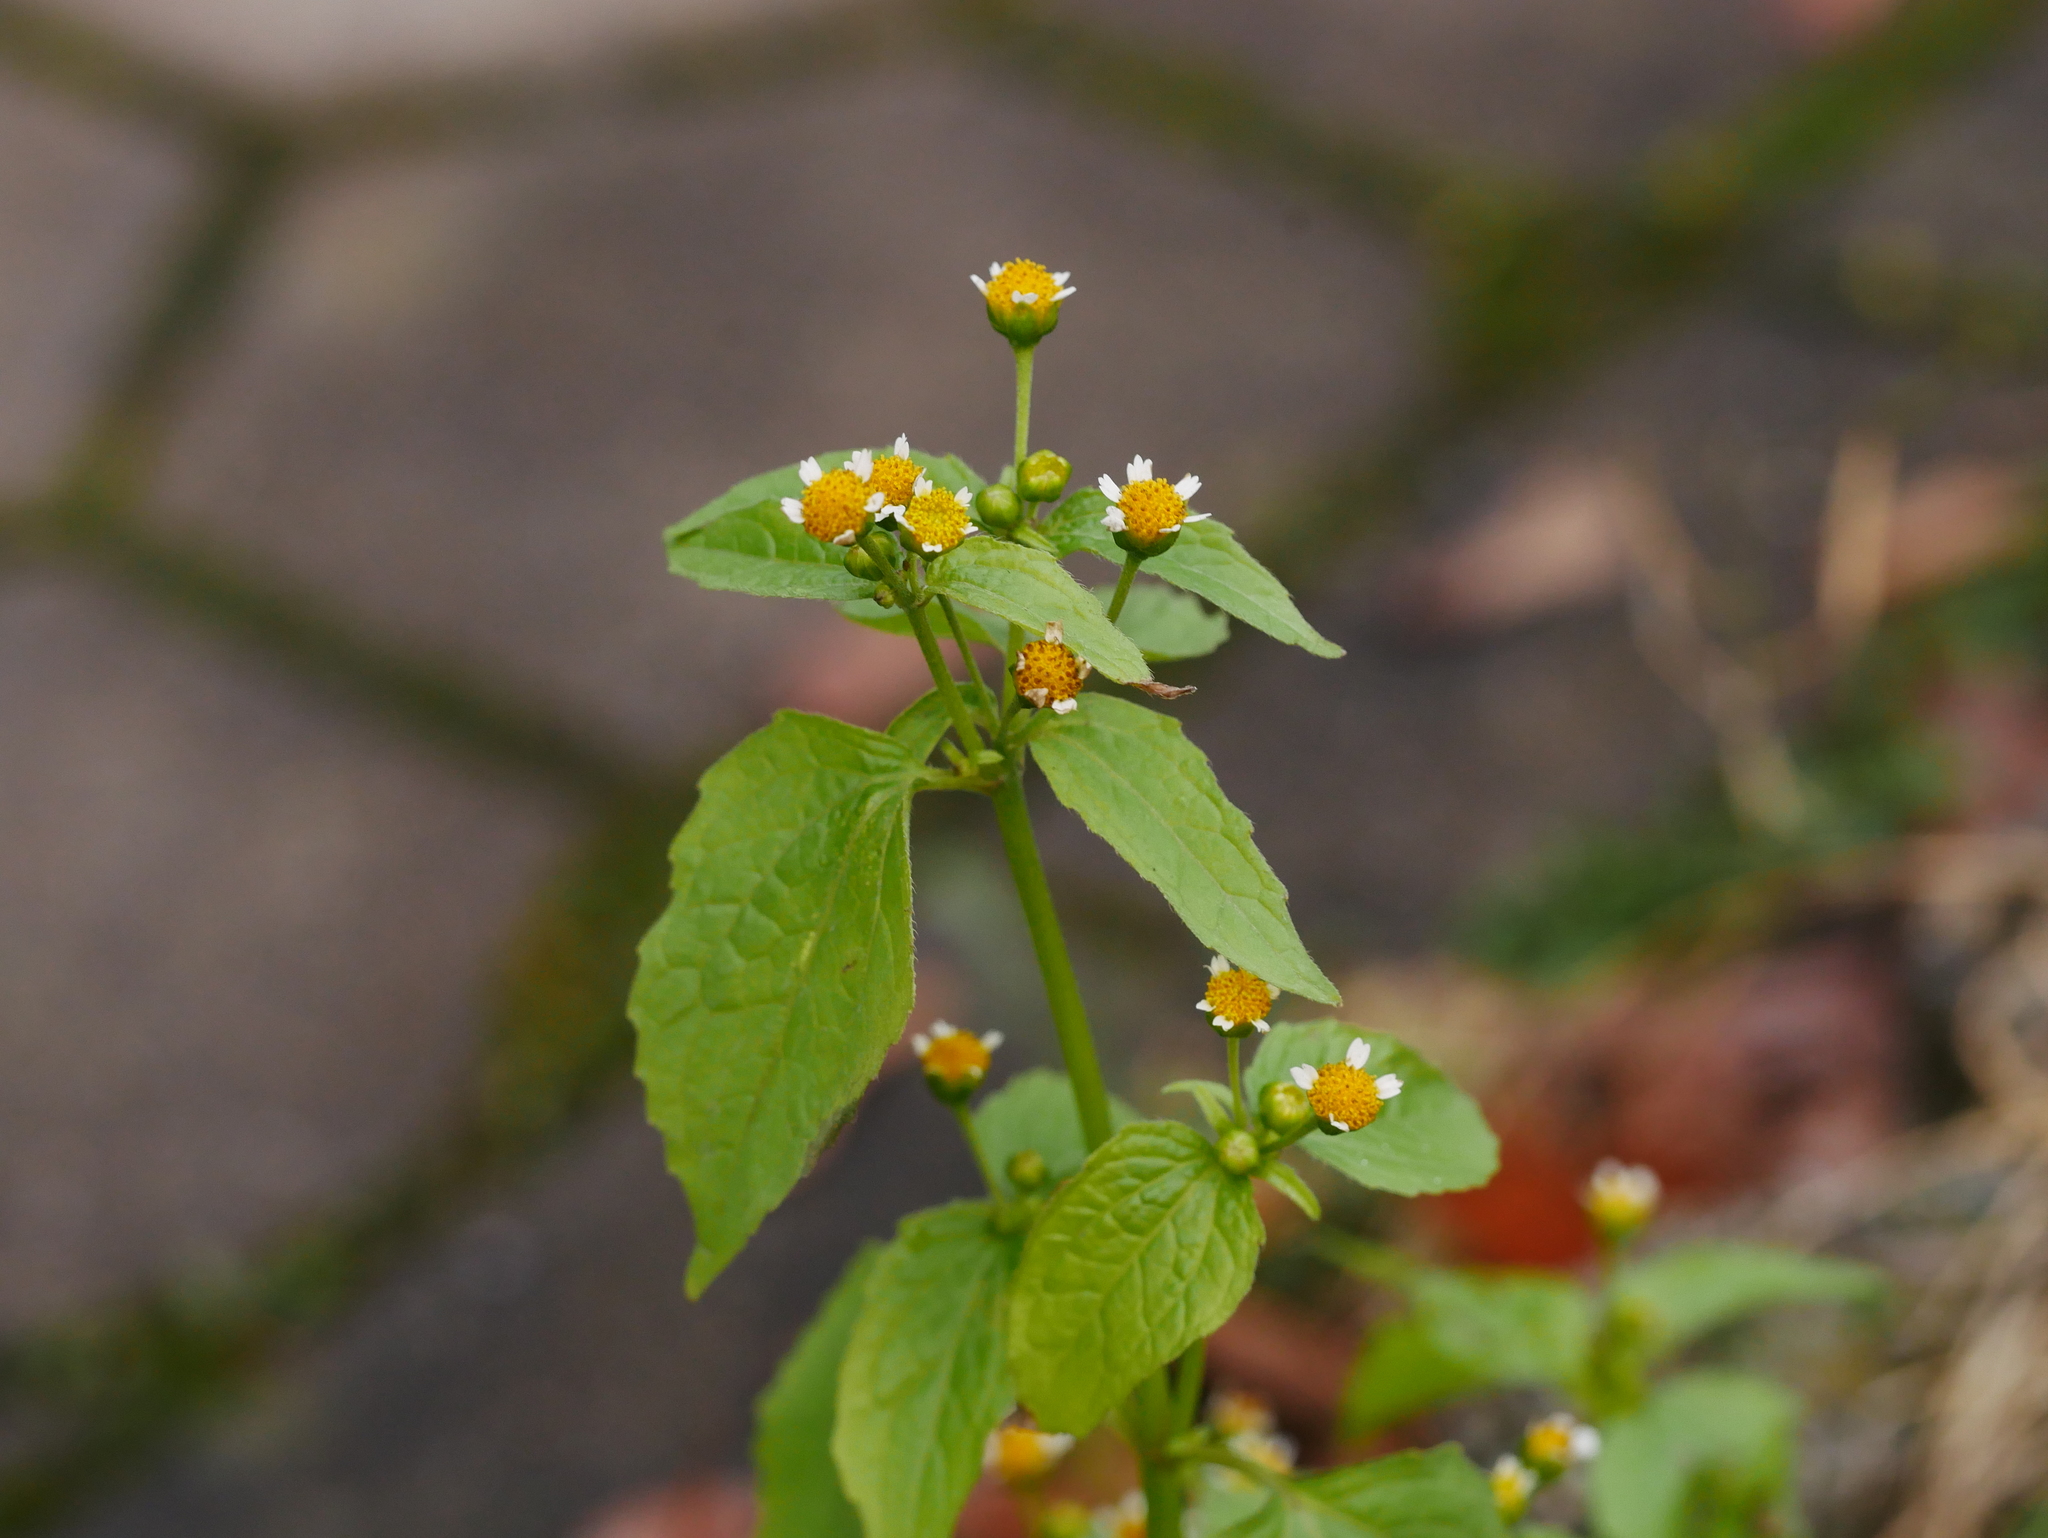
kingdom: Plantae
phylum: Tracheophyta
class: Magnoliopsida
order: Asterales
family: Asteraceae
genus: Galinsoga
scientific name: Galinsoga parviflora
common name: Gallant soldier
